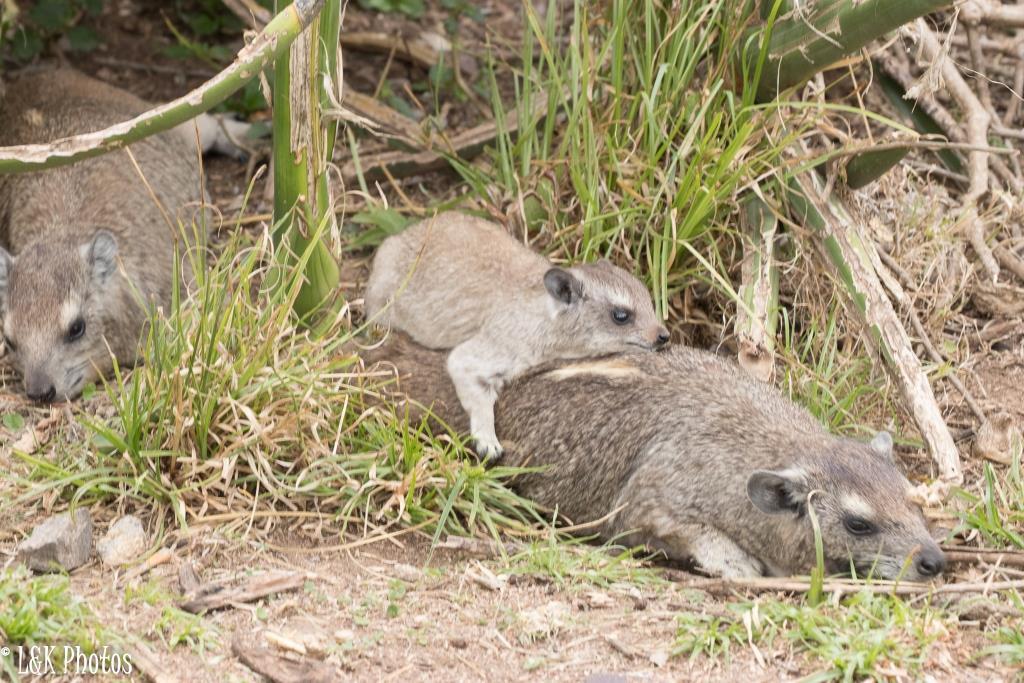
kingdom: Animalia
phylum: Chordata
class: Mammalia
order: Hyracoidea
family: Procaviidae
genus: Heterohyrax
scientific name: Heterohyrax brucei
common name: Bush hyrax
